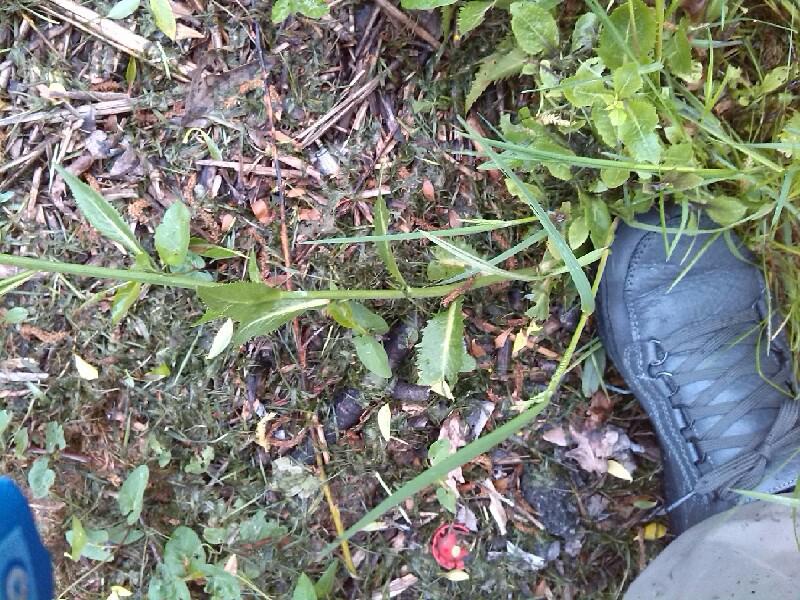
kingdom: Plantae
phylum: Tracheophyta
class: Magnoliopsida
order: Brassicales
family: Brassicaceae
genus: Rorippa
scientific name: Rorippa austriaca
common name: Austrian yellow-cress
